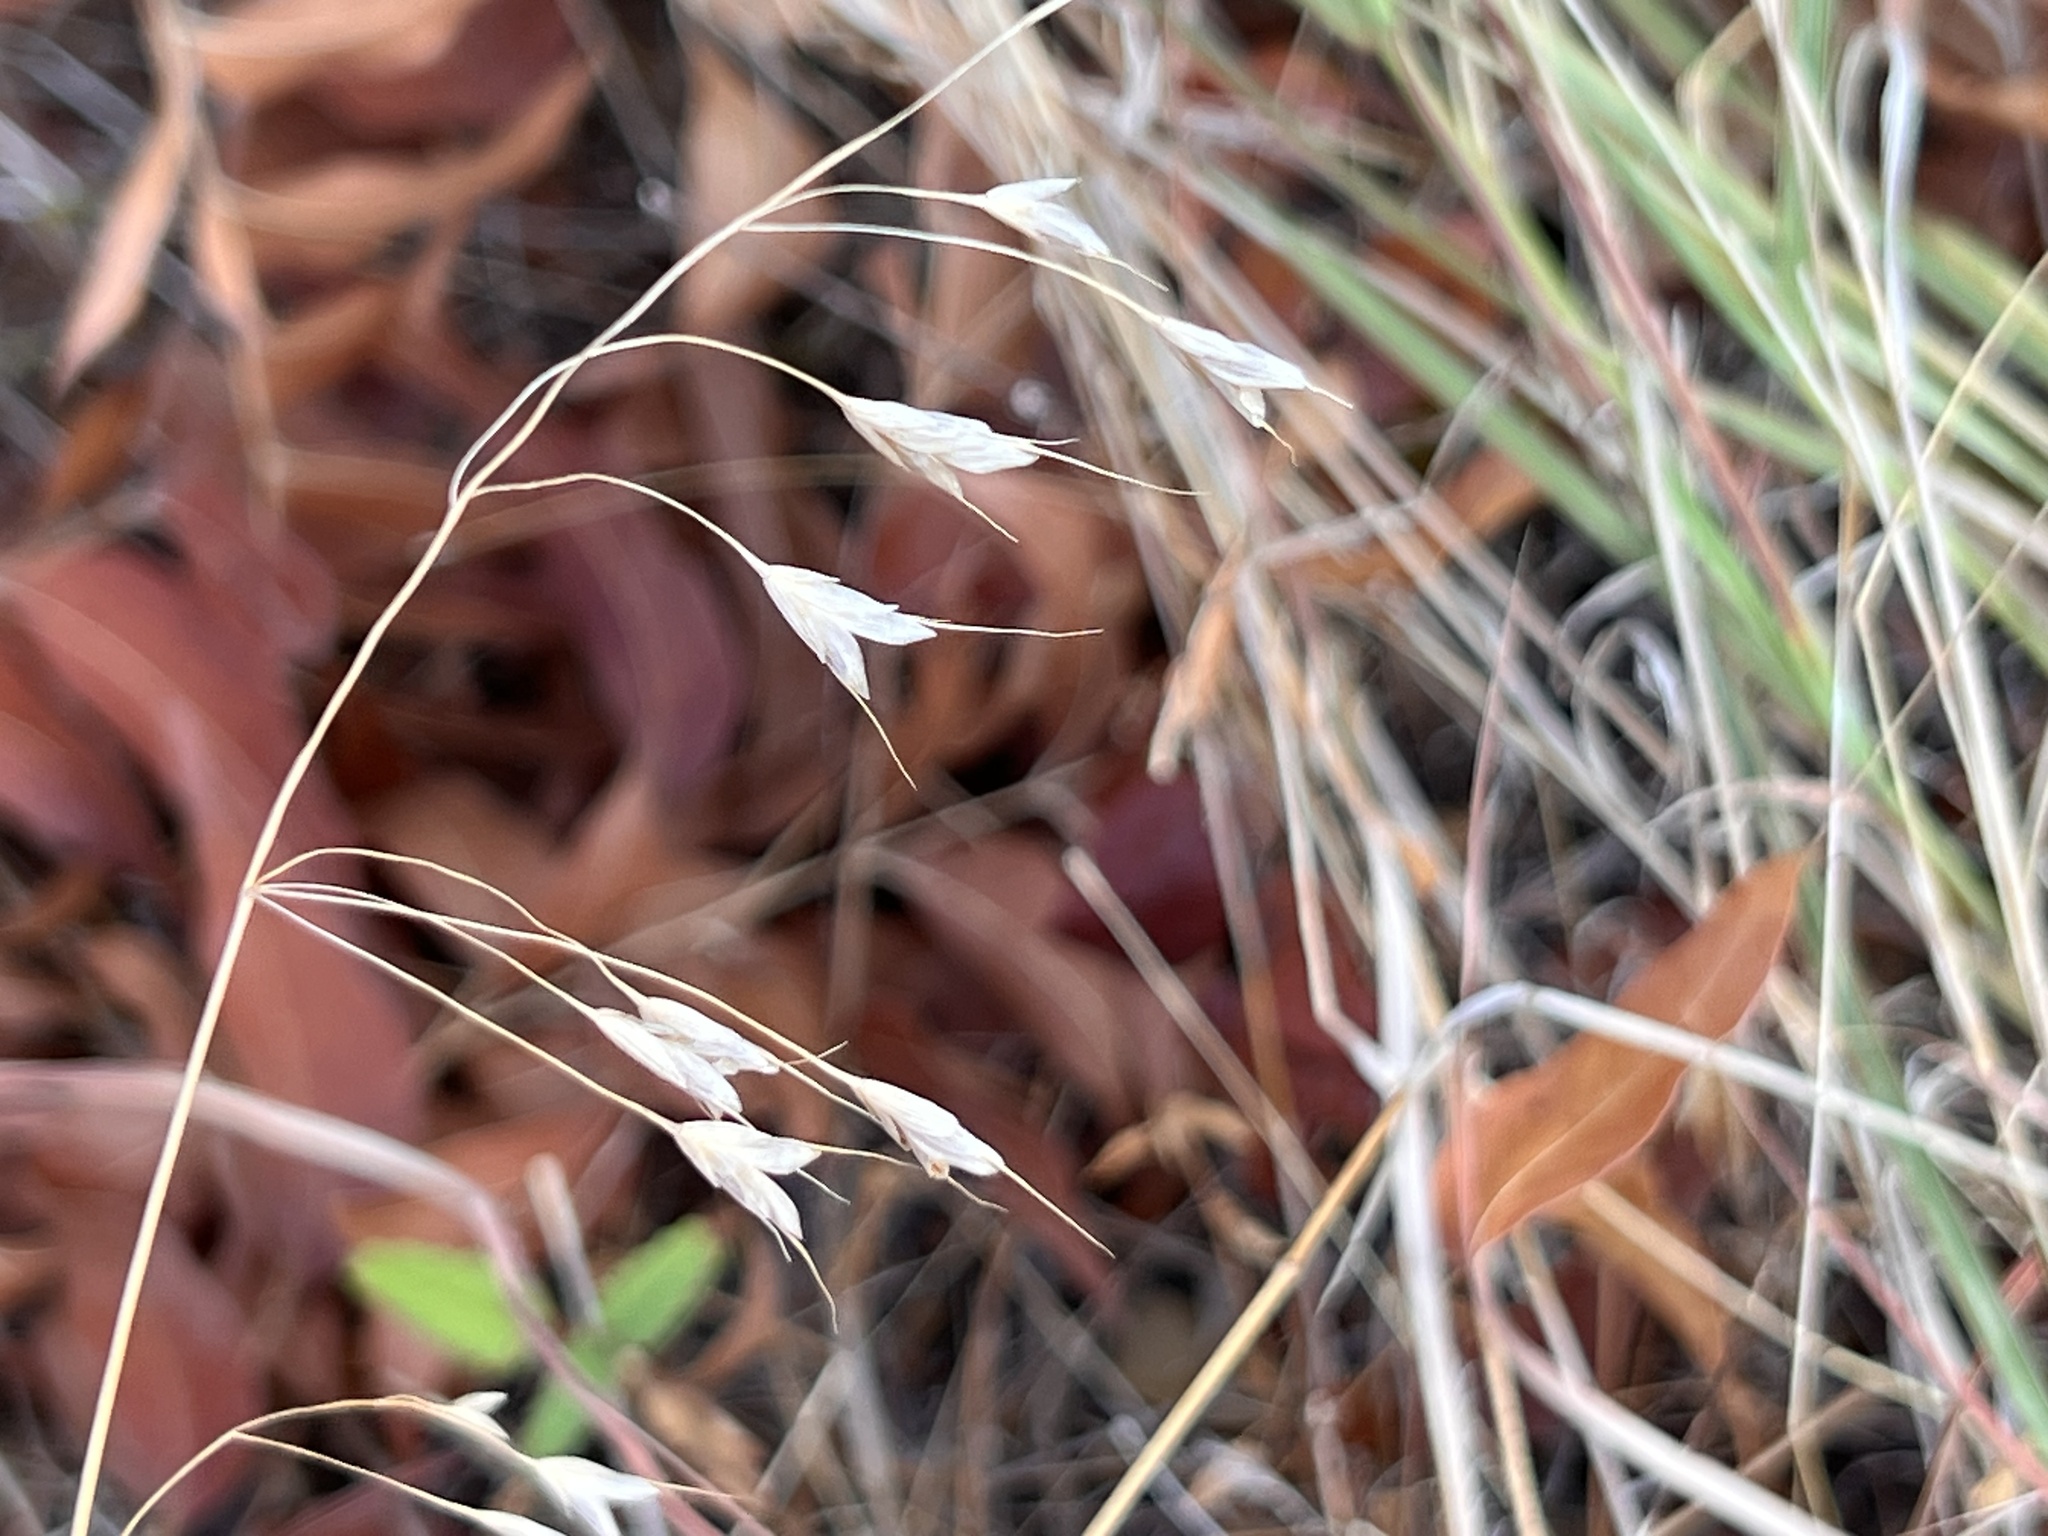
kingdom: Plantae
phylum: Tracheophyta
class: Liliopsida
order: Poales
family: Poaceae
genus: Bromus
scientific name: Bromus japonicus
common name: Japanese brome
